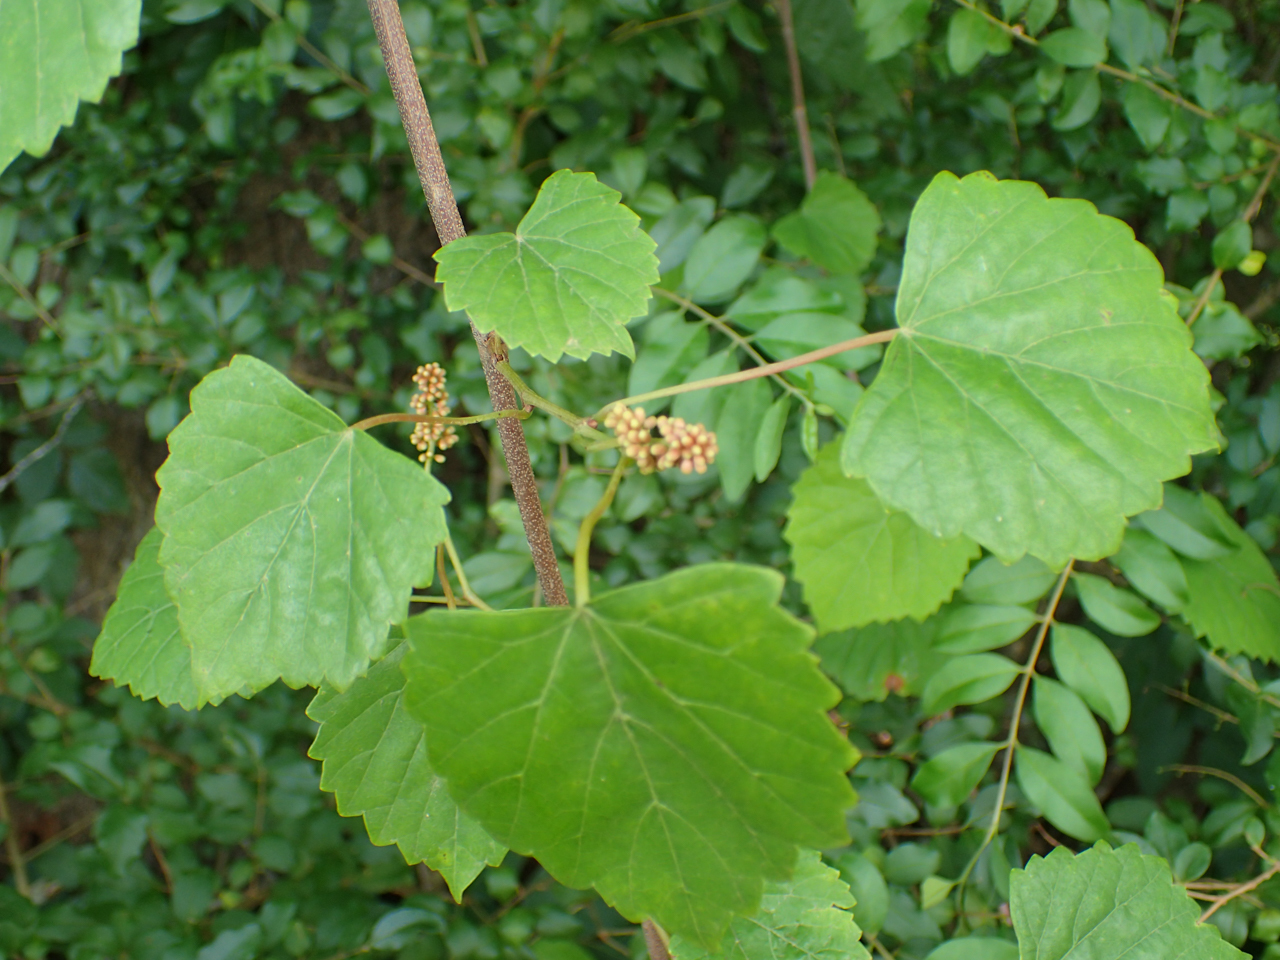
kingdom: Plantae
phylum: Tracheophyta
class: Magnoliopsida
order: Vitales
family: Vitaceae
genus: Vitis
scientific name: Vitis rotundifolia
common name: Muscadine grape
